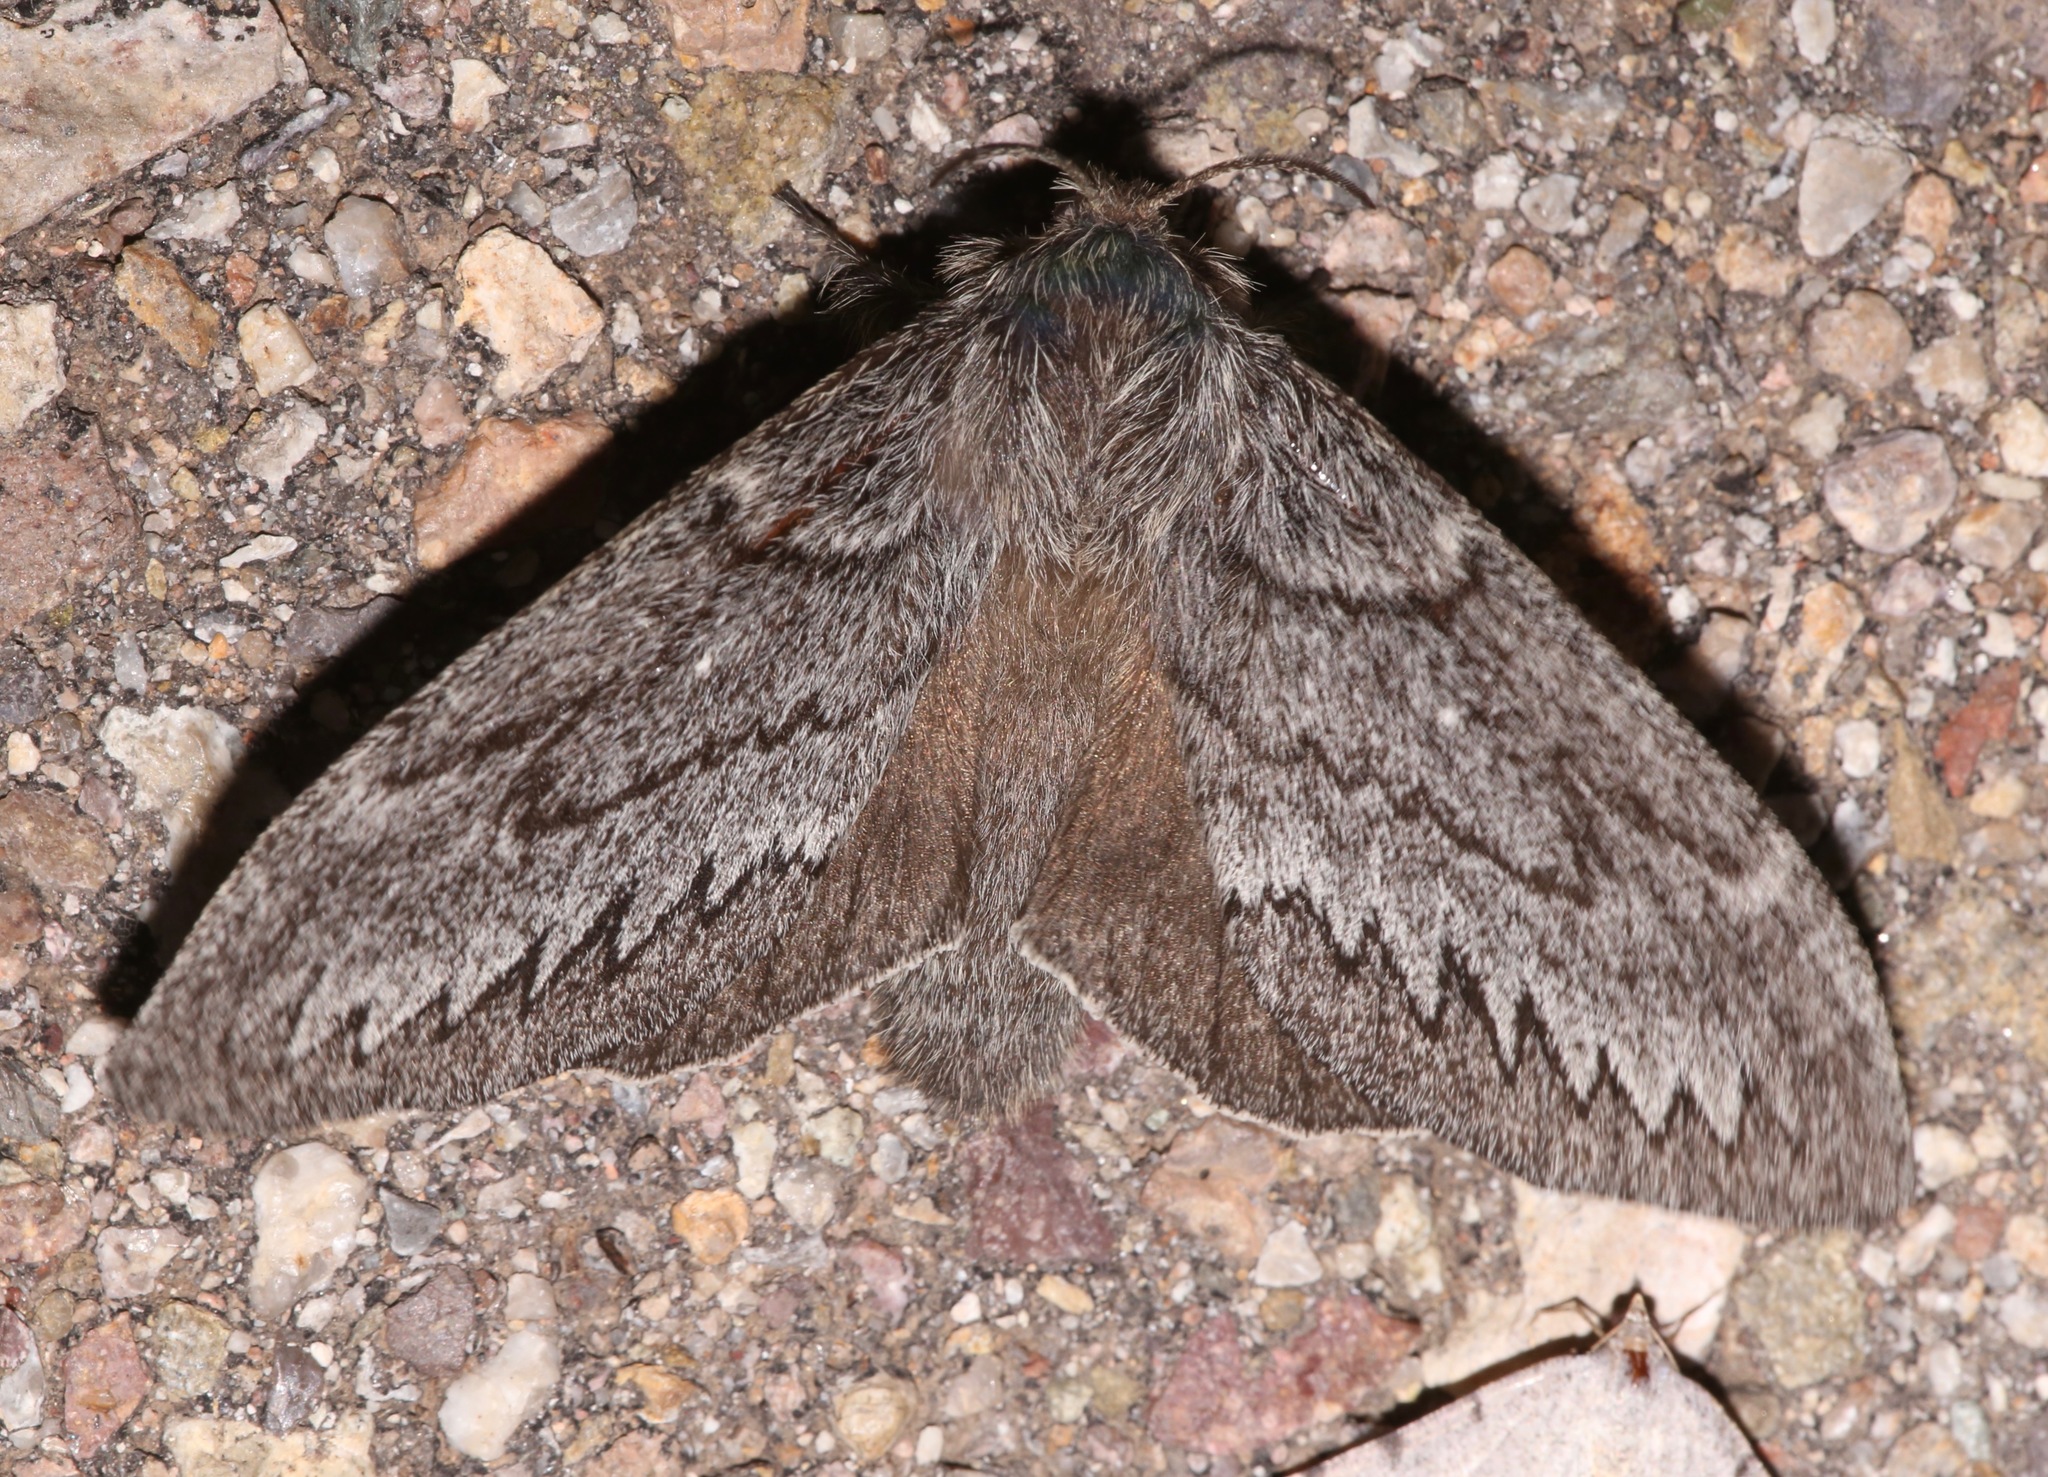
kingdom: Animalia
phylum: Arthropoda
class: Insecta
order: Lepidoptera
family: Lasiocampidae
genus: Gloveria
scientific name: Gloveria arizonensis
